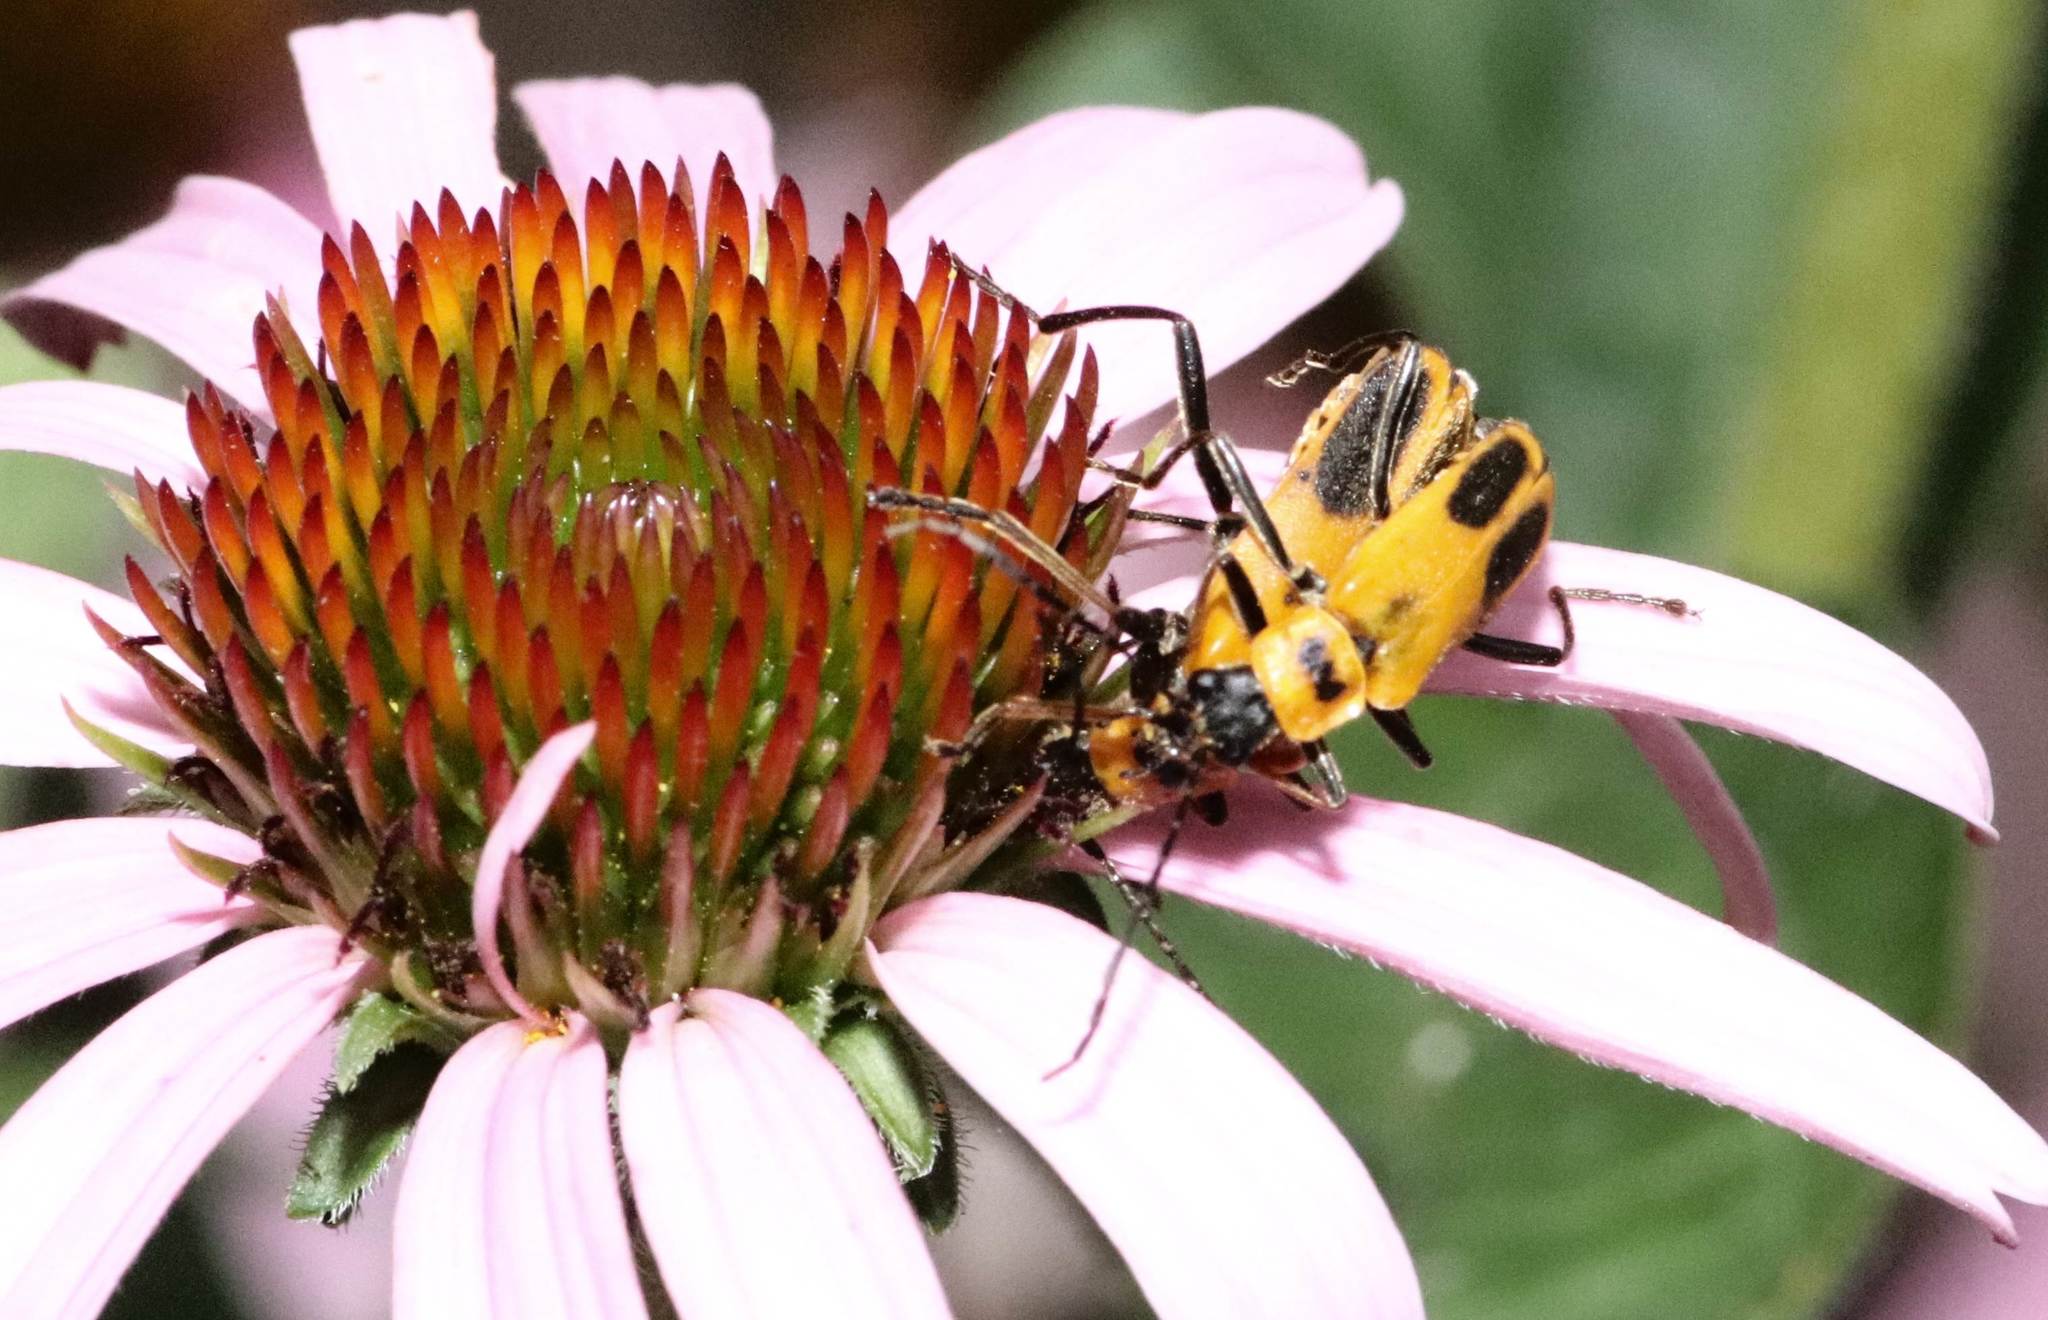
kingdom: Animalia
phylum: Arthropoda
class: Insecta
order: Coleoptera
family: Cantharidae
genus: Chauliognathus
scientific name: Chauliognathus pensylvanicus
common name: Goldenrod soldier beetle
